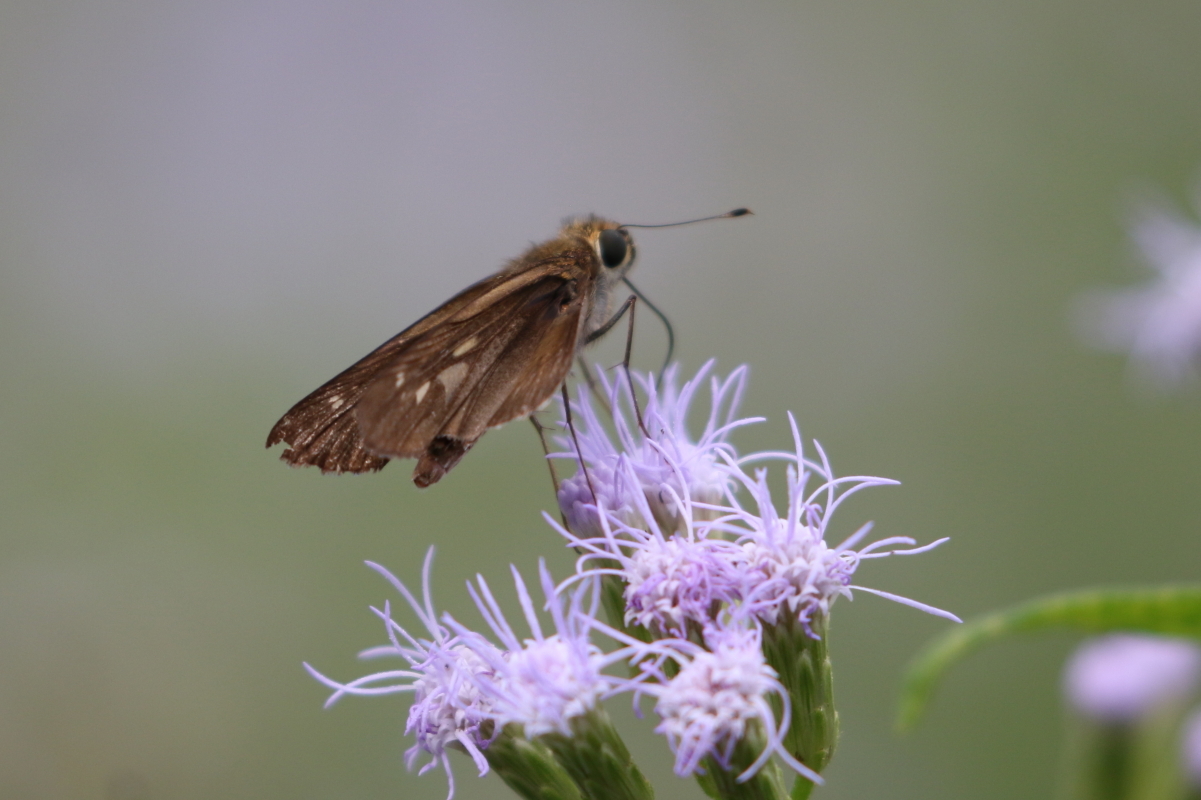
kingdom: Animalia
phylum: Arthropoda
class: Insecta
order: Lepidoptera
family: Hesperiidae
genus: Panoquina
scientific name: Panoquina ocola
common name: Ocola skipper
